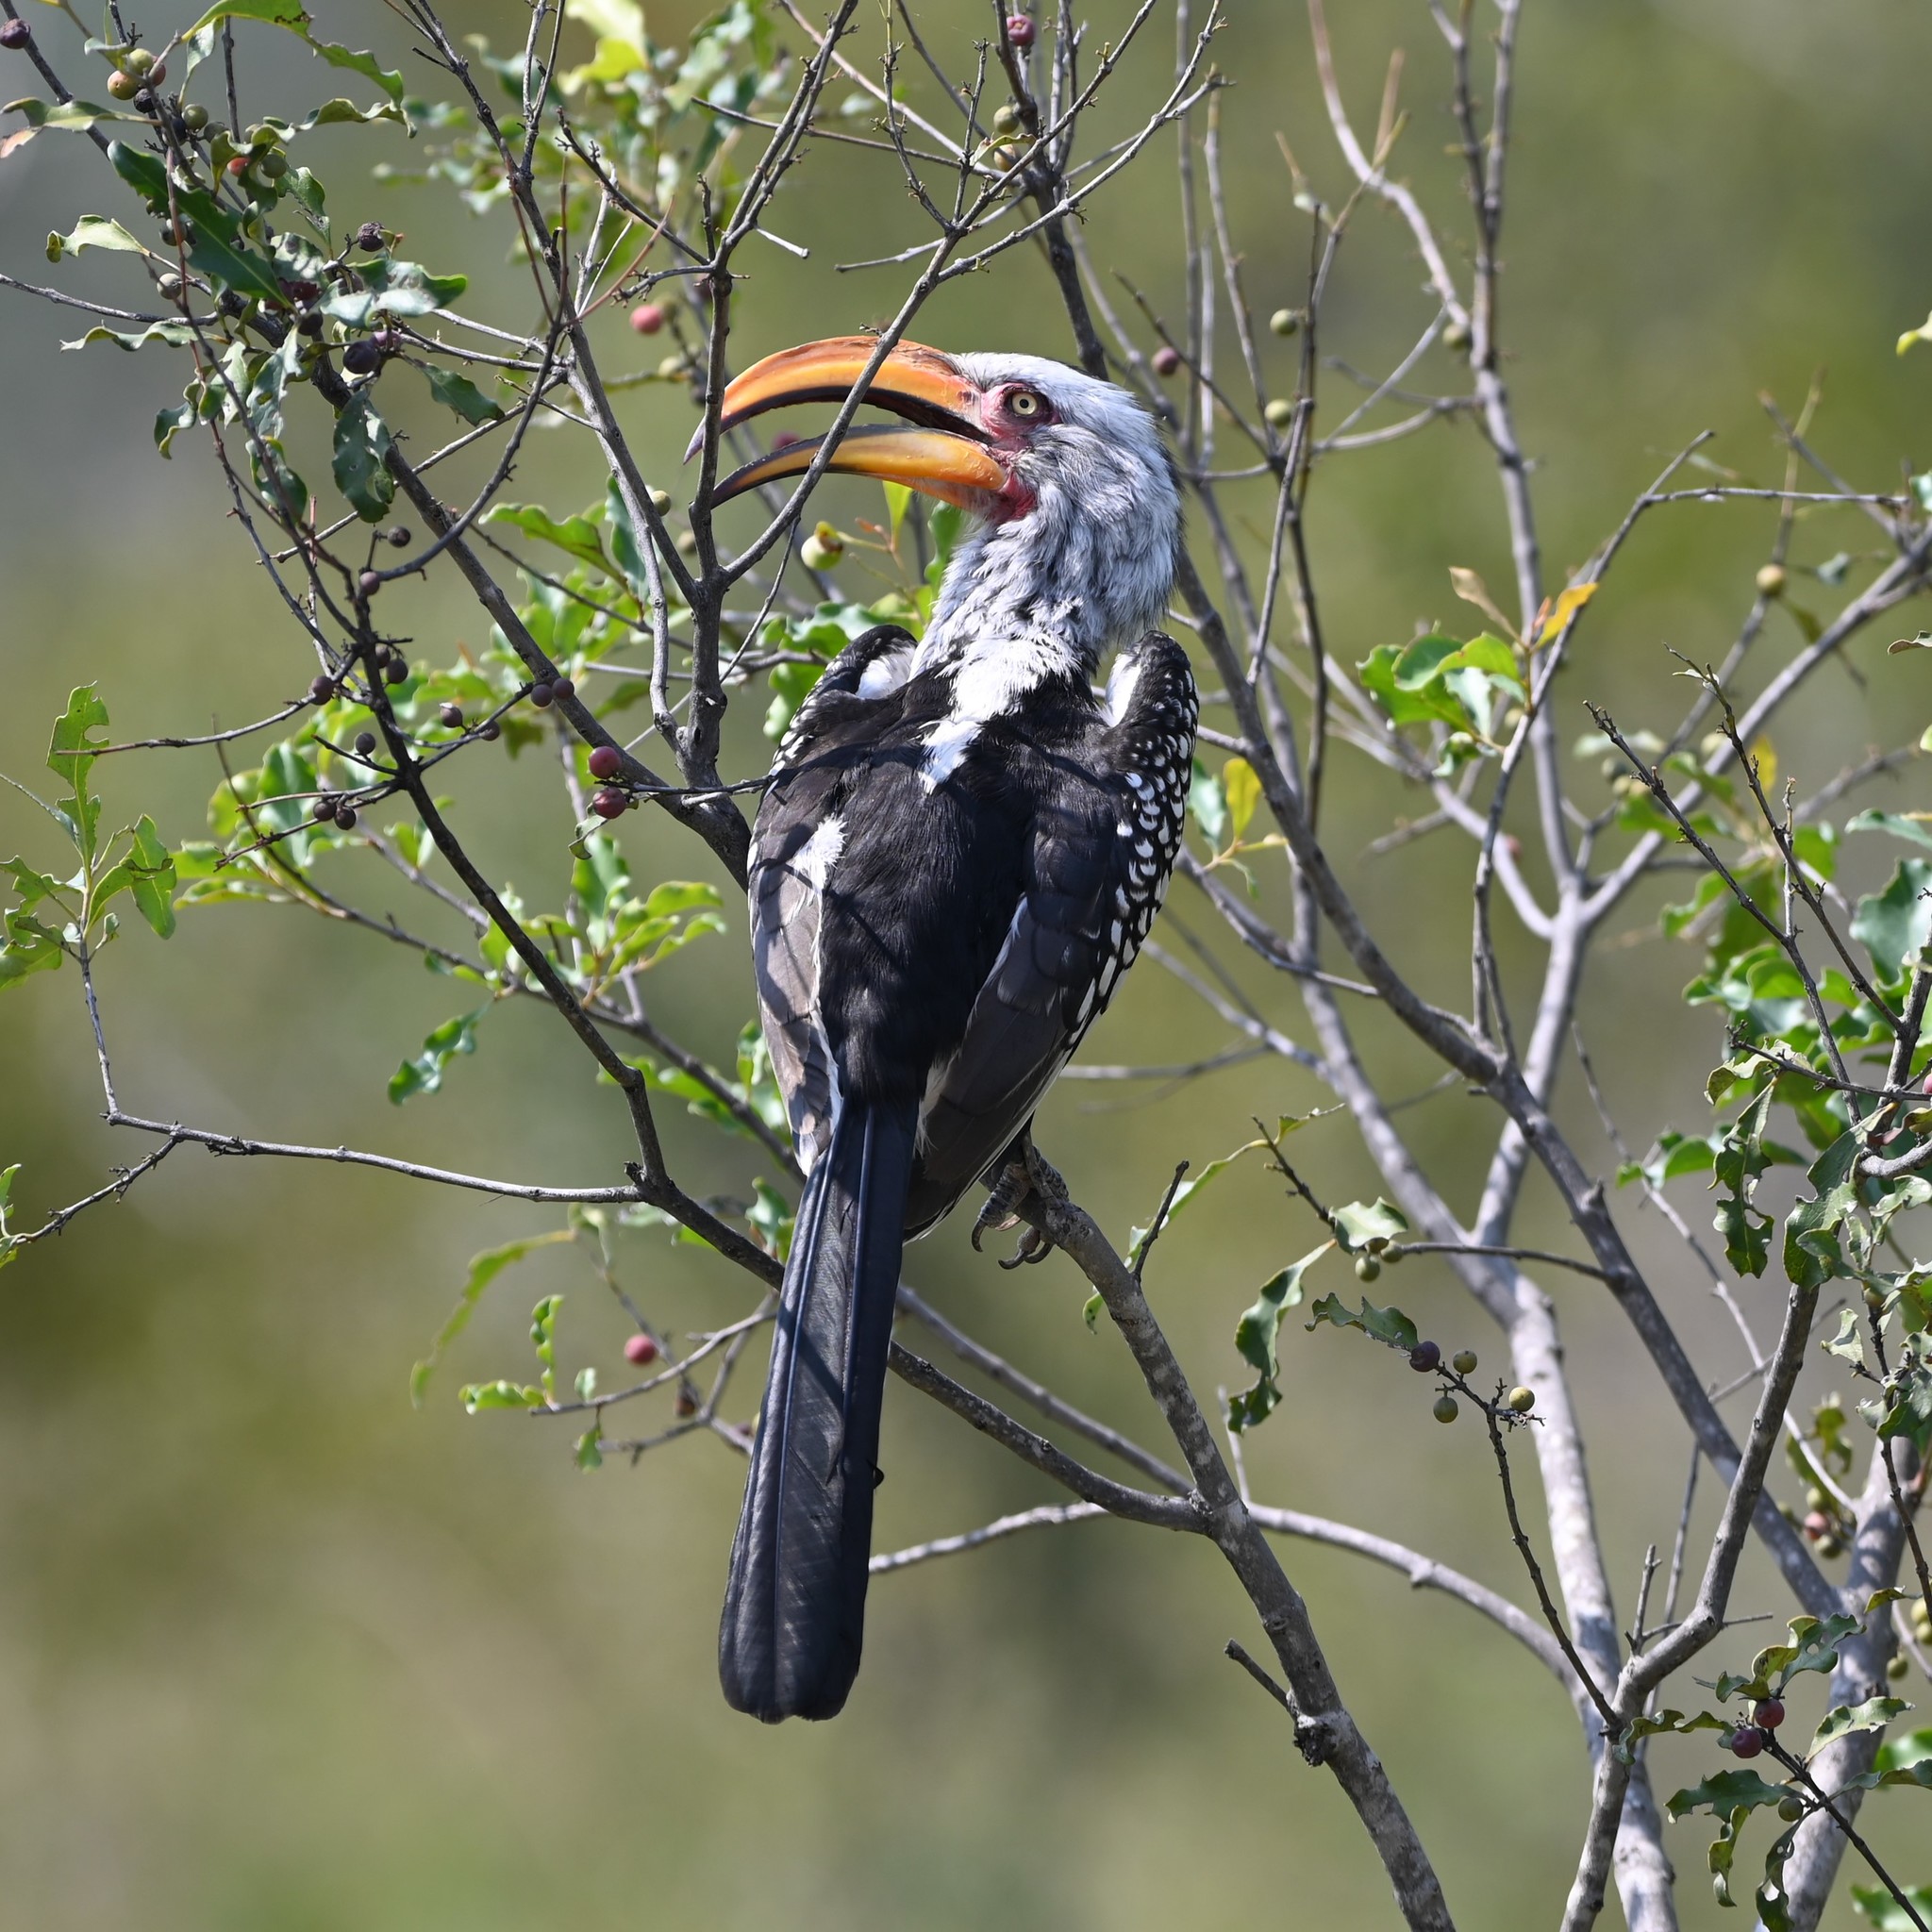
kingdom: Animalia
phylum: Chordata
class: Aves
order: Bucerotiformes
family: Bucerotidae
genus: Tockus
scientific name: Tockus leucomelas
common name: Southern yellow-billed hornbill
